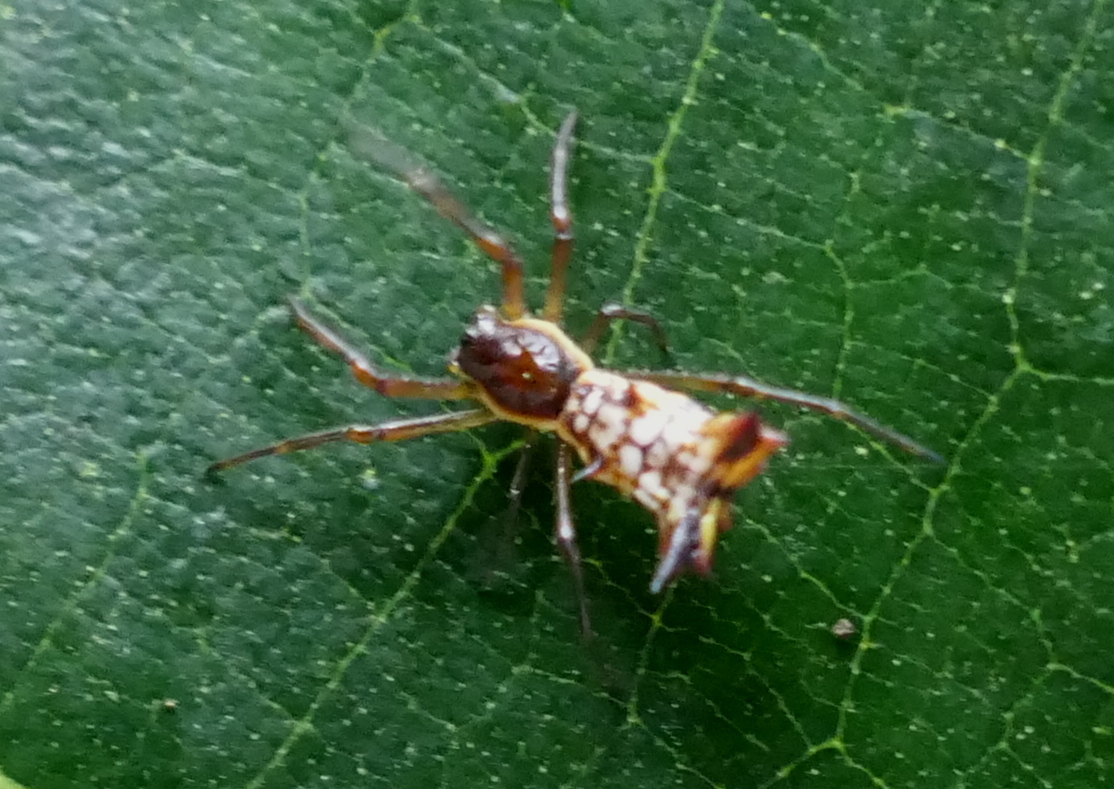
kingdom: Animalia
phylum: Arthropoda
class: Arachnida
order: Araneae
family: Araneidae
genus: Micrathena
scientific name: Micrathena fissispina
